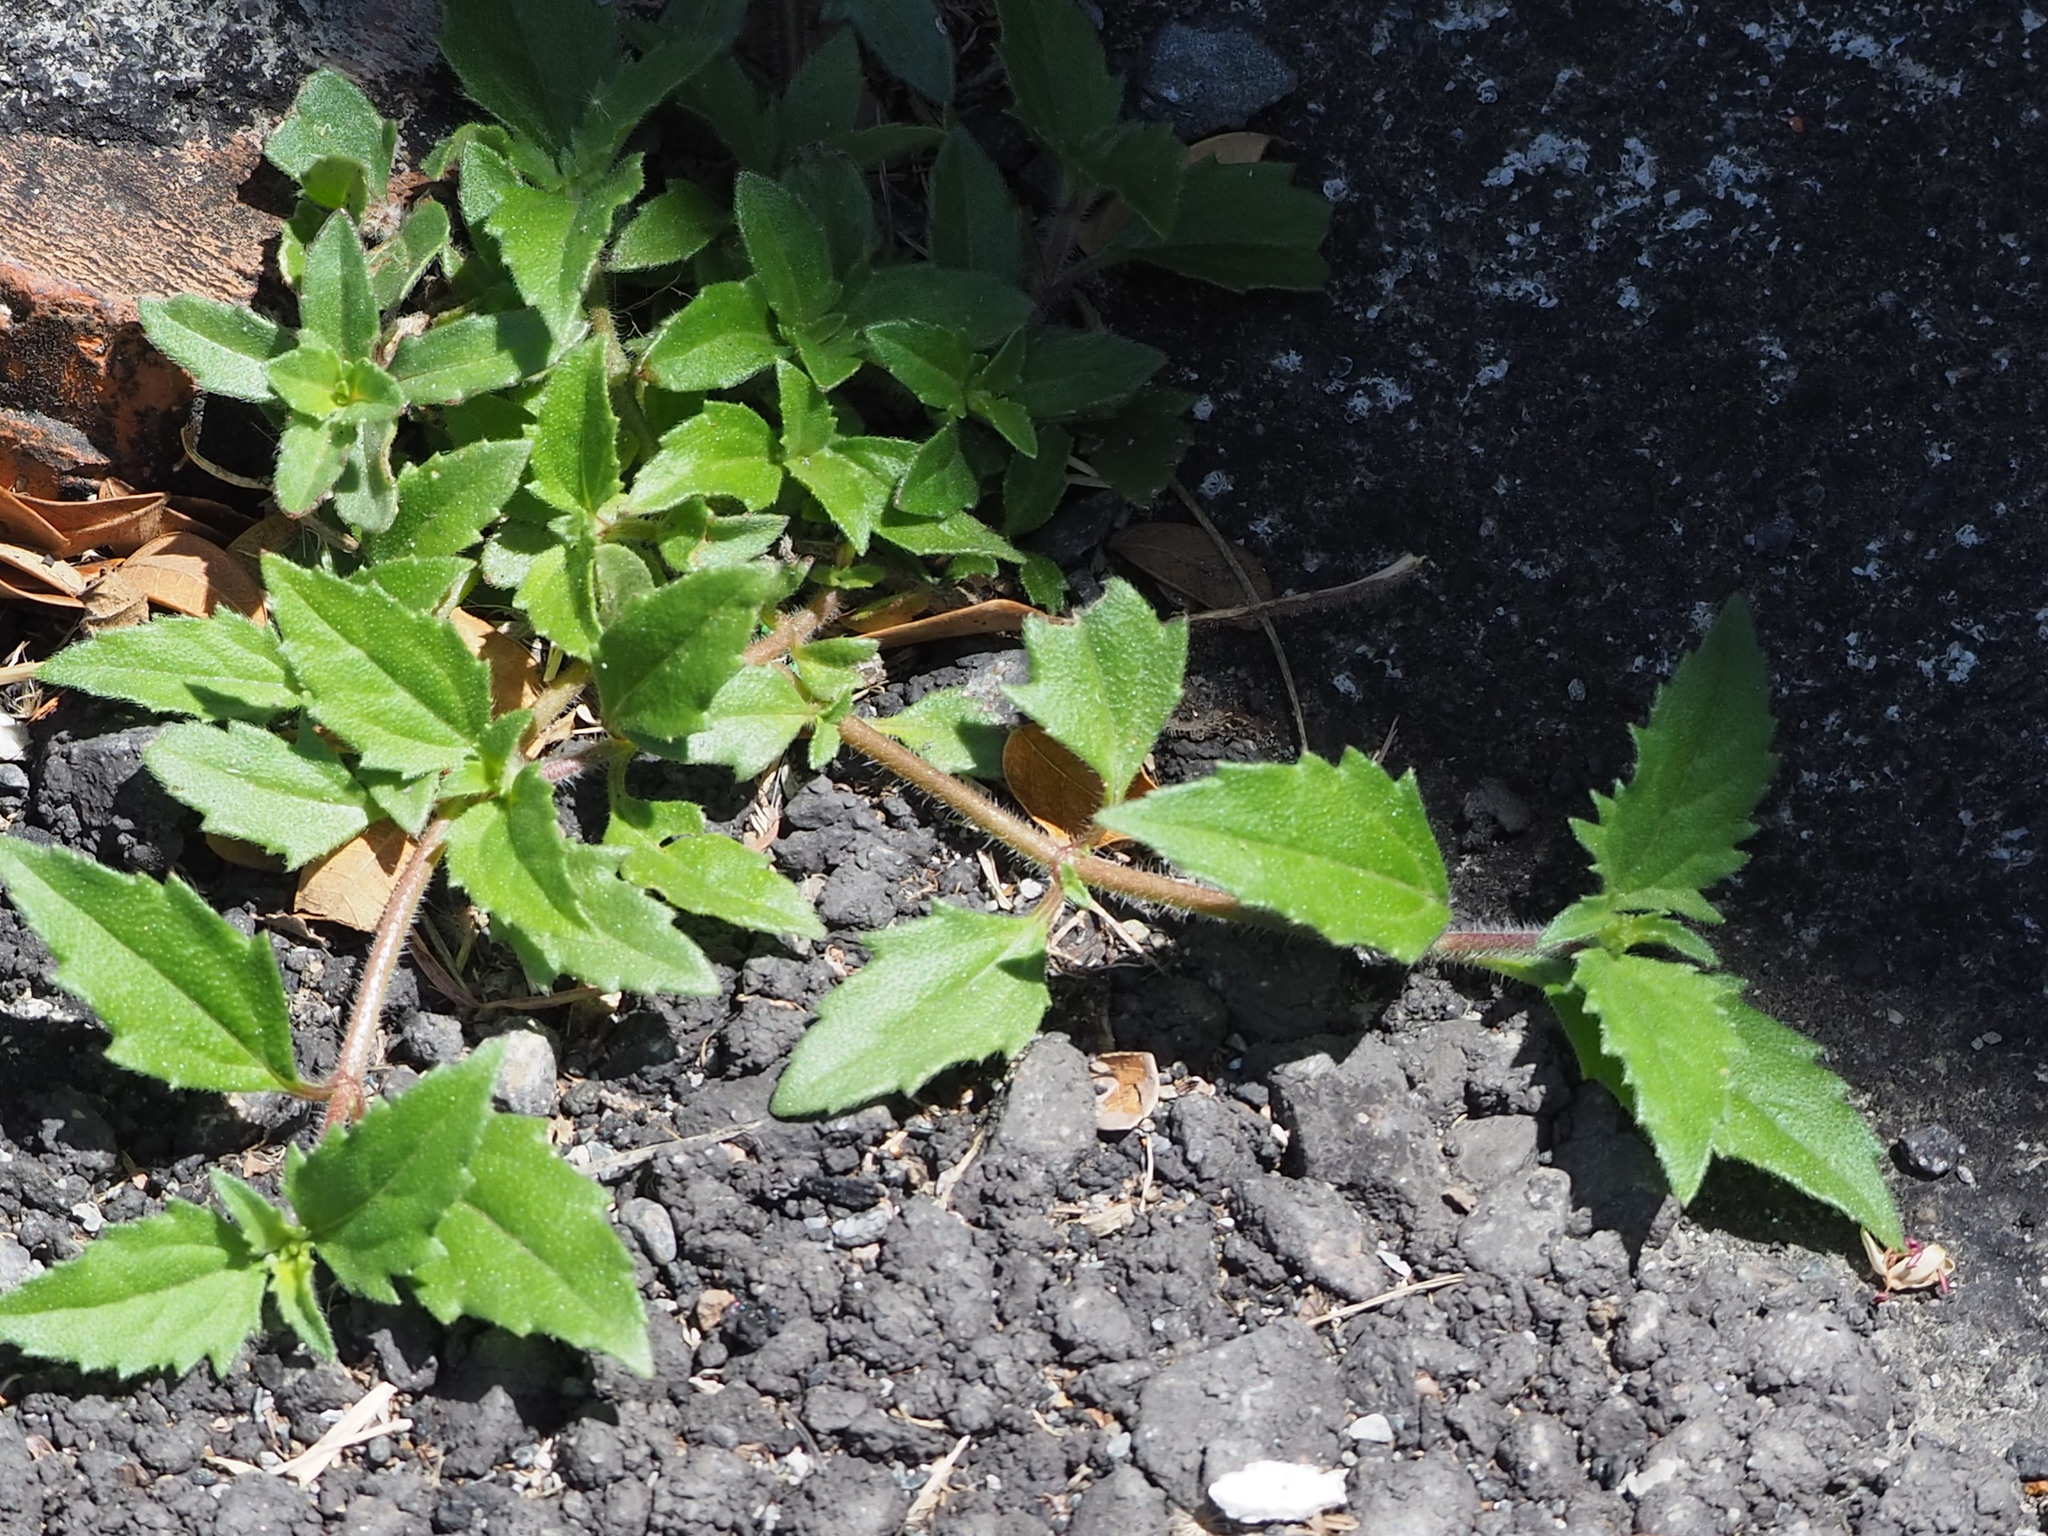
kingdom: Plantae
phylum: Tracheophyta
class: Magnoliopsida
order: Asterales
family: Asteraceae
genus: Tridax
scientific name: Tridax procumbens
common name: Coatbuttons
